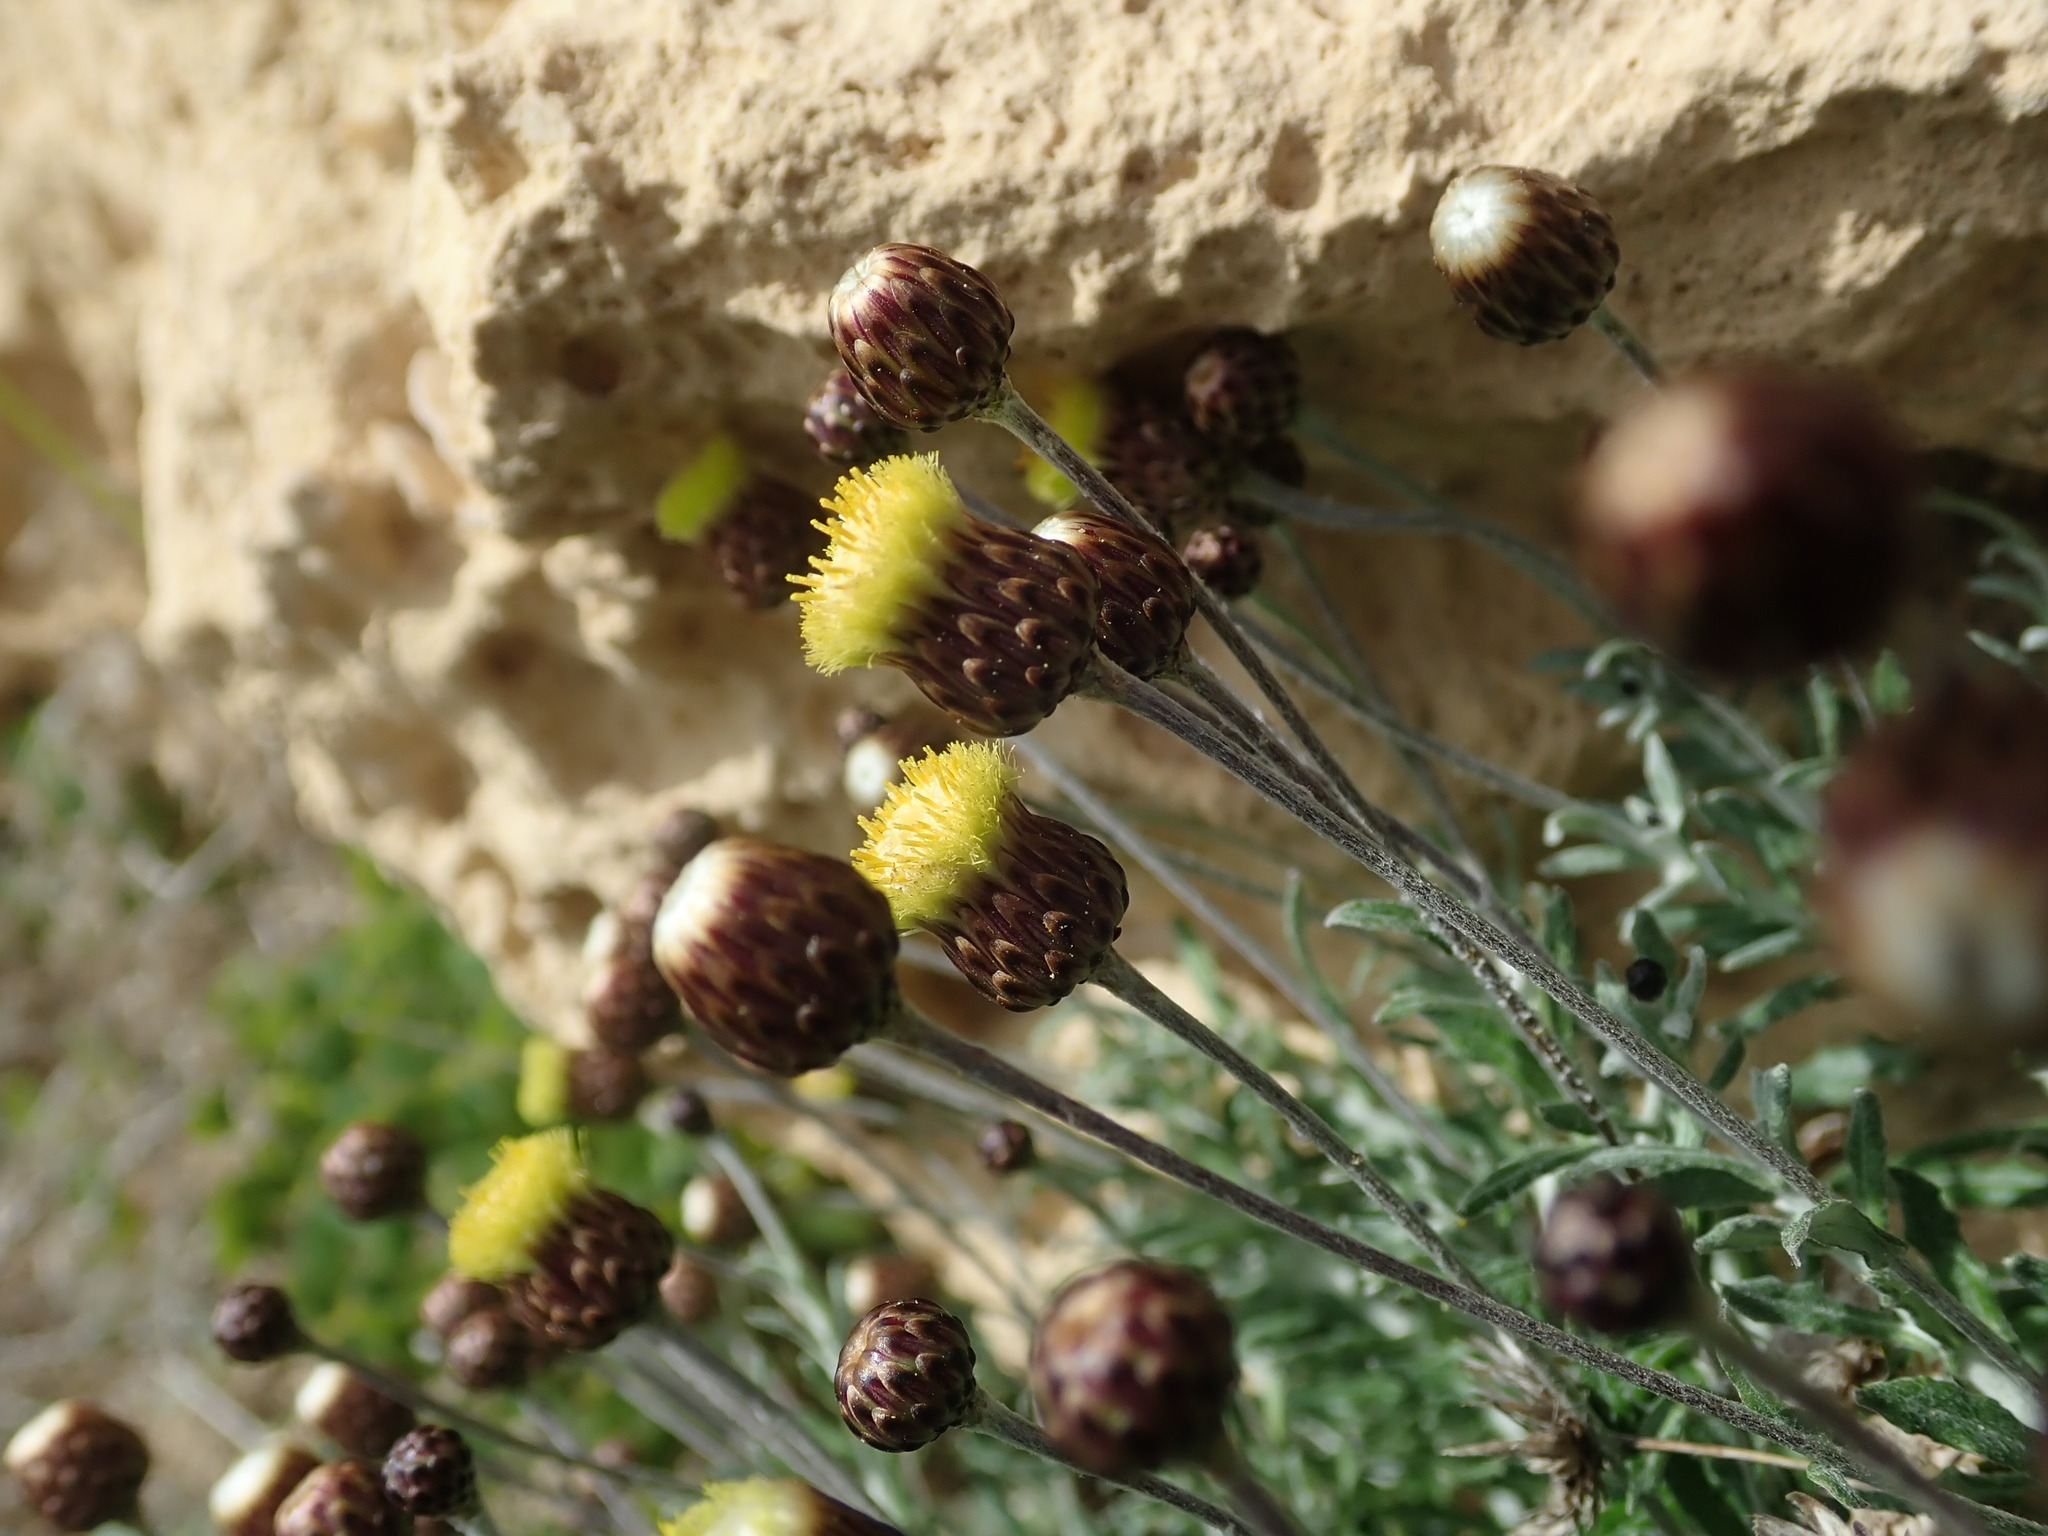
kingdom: Plantae
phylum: Tracheophyta
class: Magnoliopsida
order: Asterales
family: Asteraceae
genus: Phagnalon
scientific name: Phagnalon rupestre
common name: Rock phagnalon
